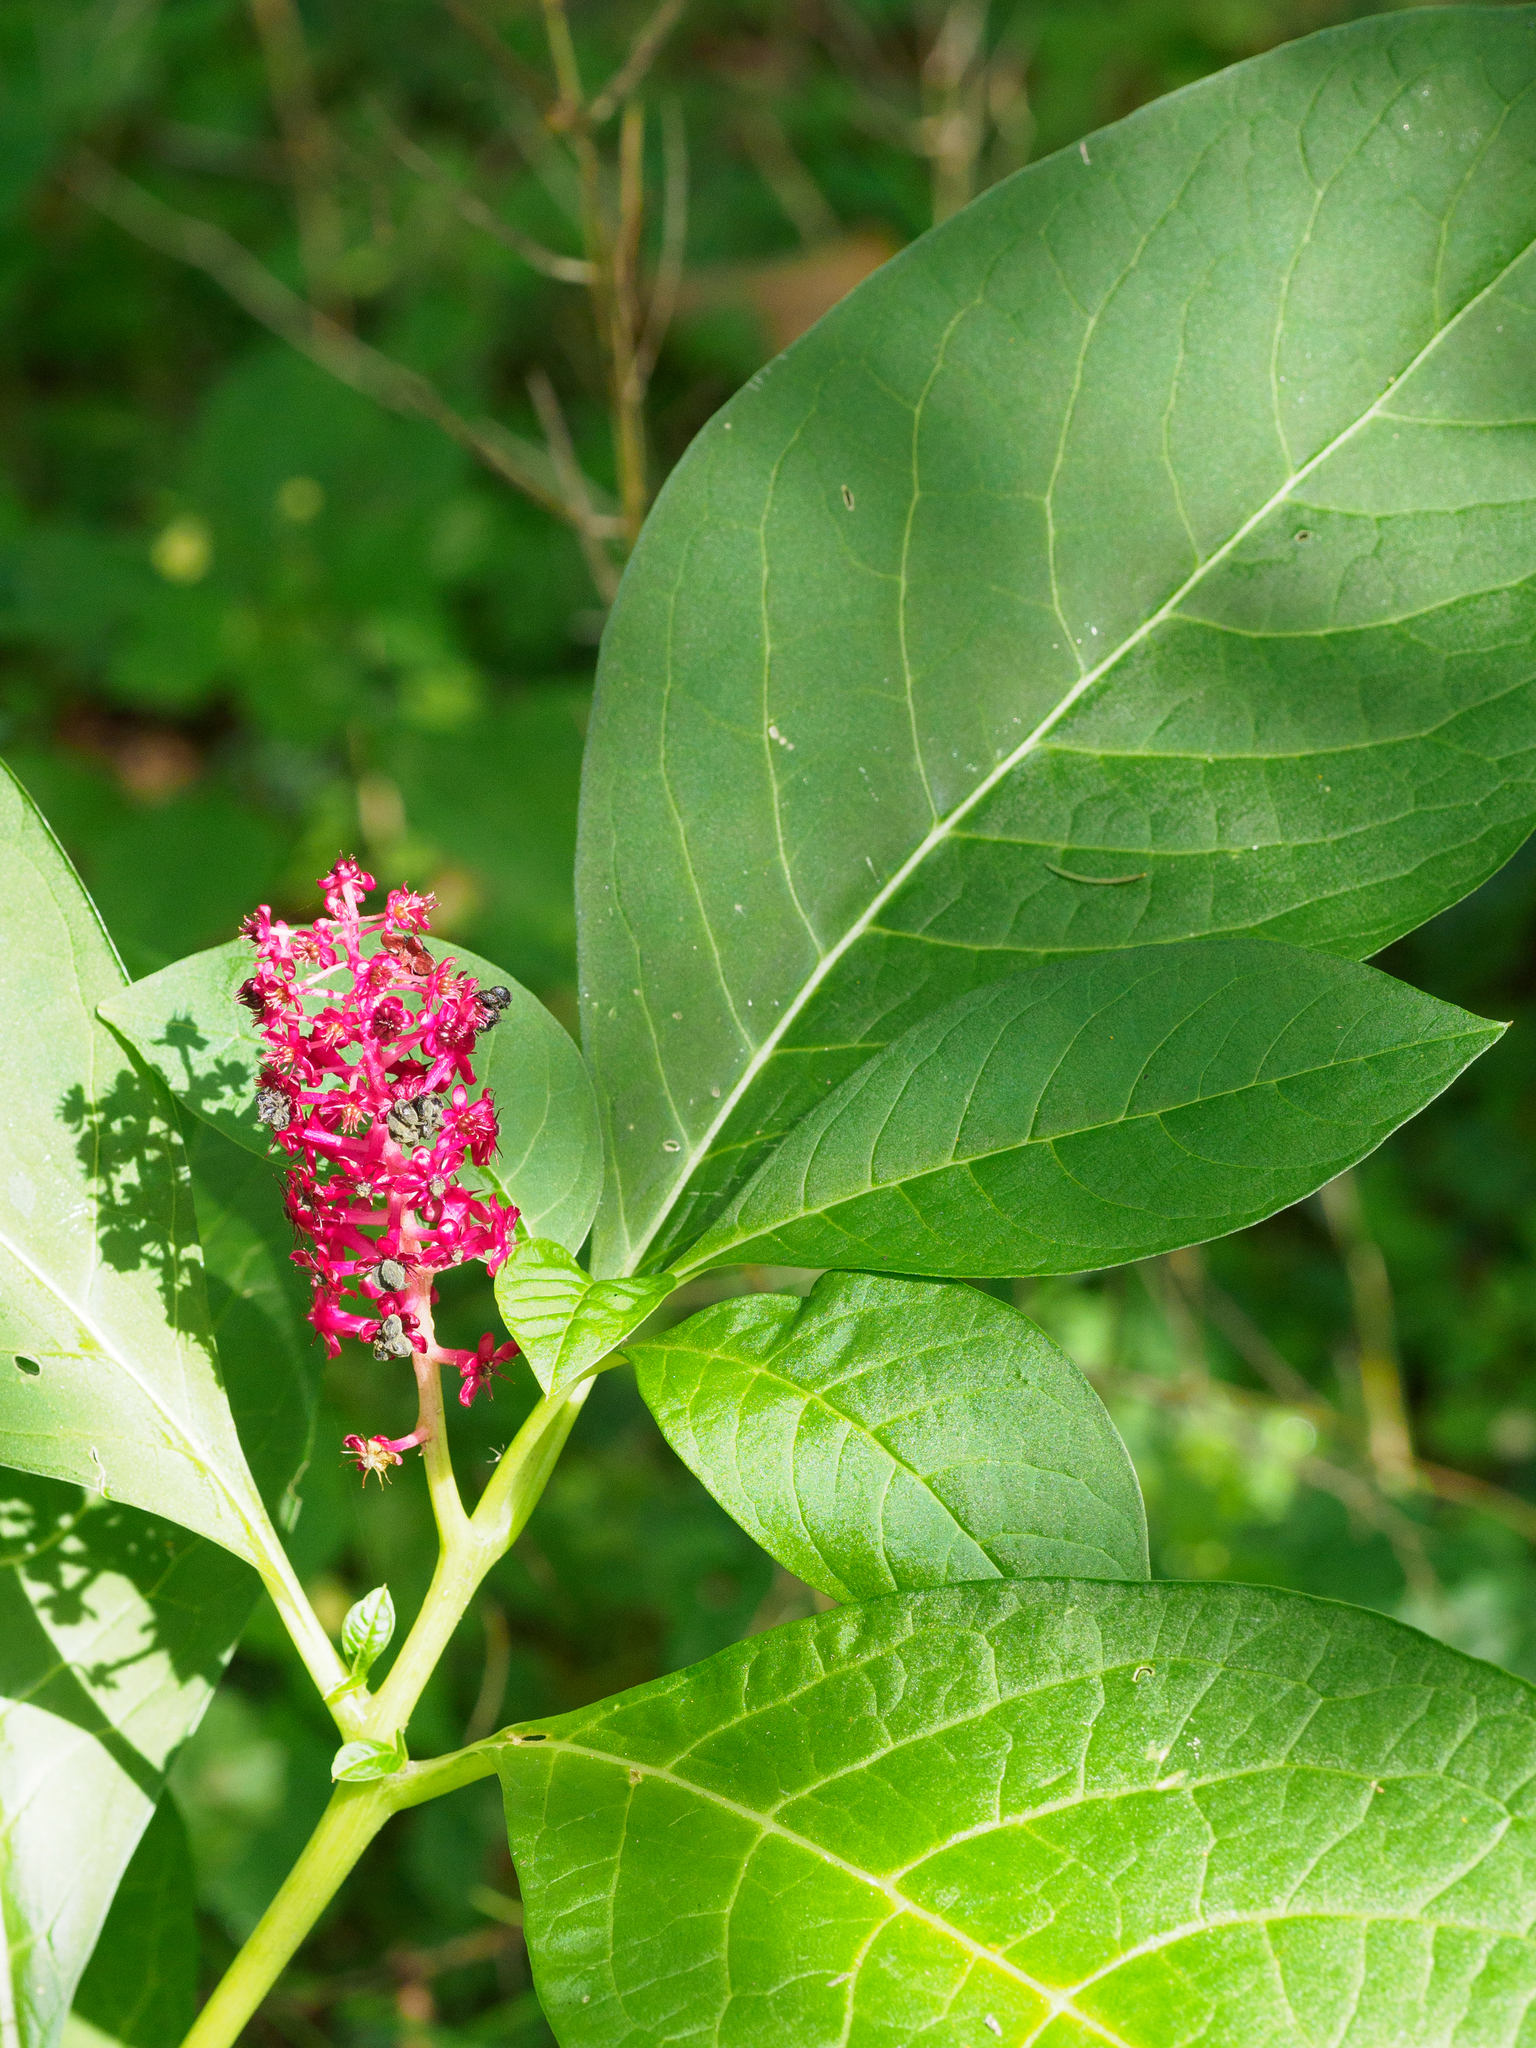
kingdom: Plantae
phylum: Tracheophyta
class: Magnoliopsida
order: Caryophyllales
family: Phytolaccaceae
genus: Phytolacca
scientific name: Phytolacca acinosa
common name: Indian pokeweed
